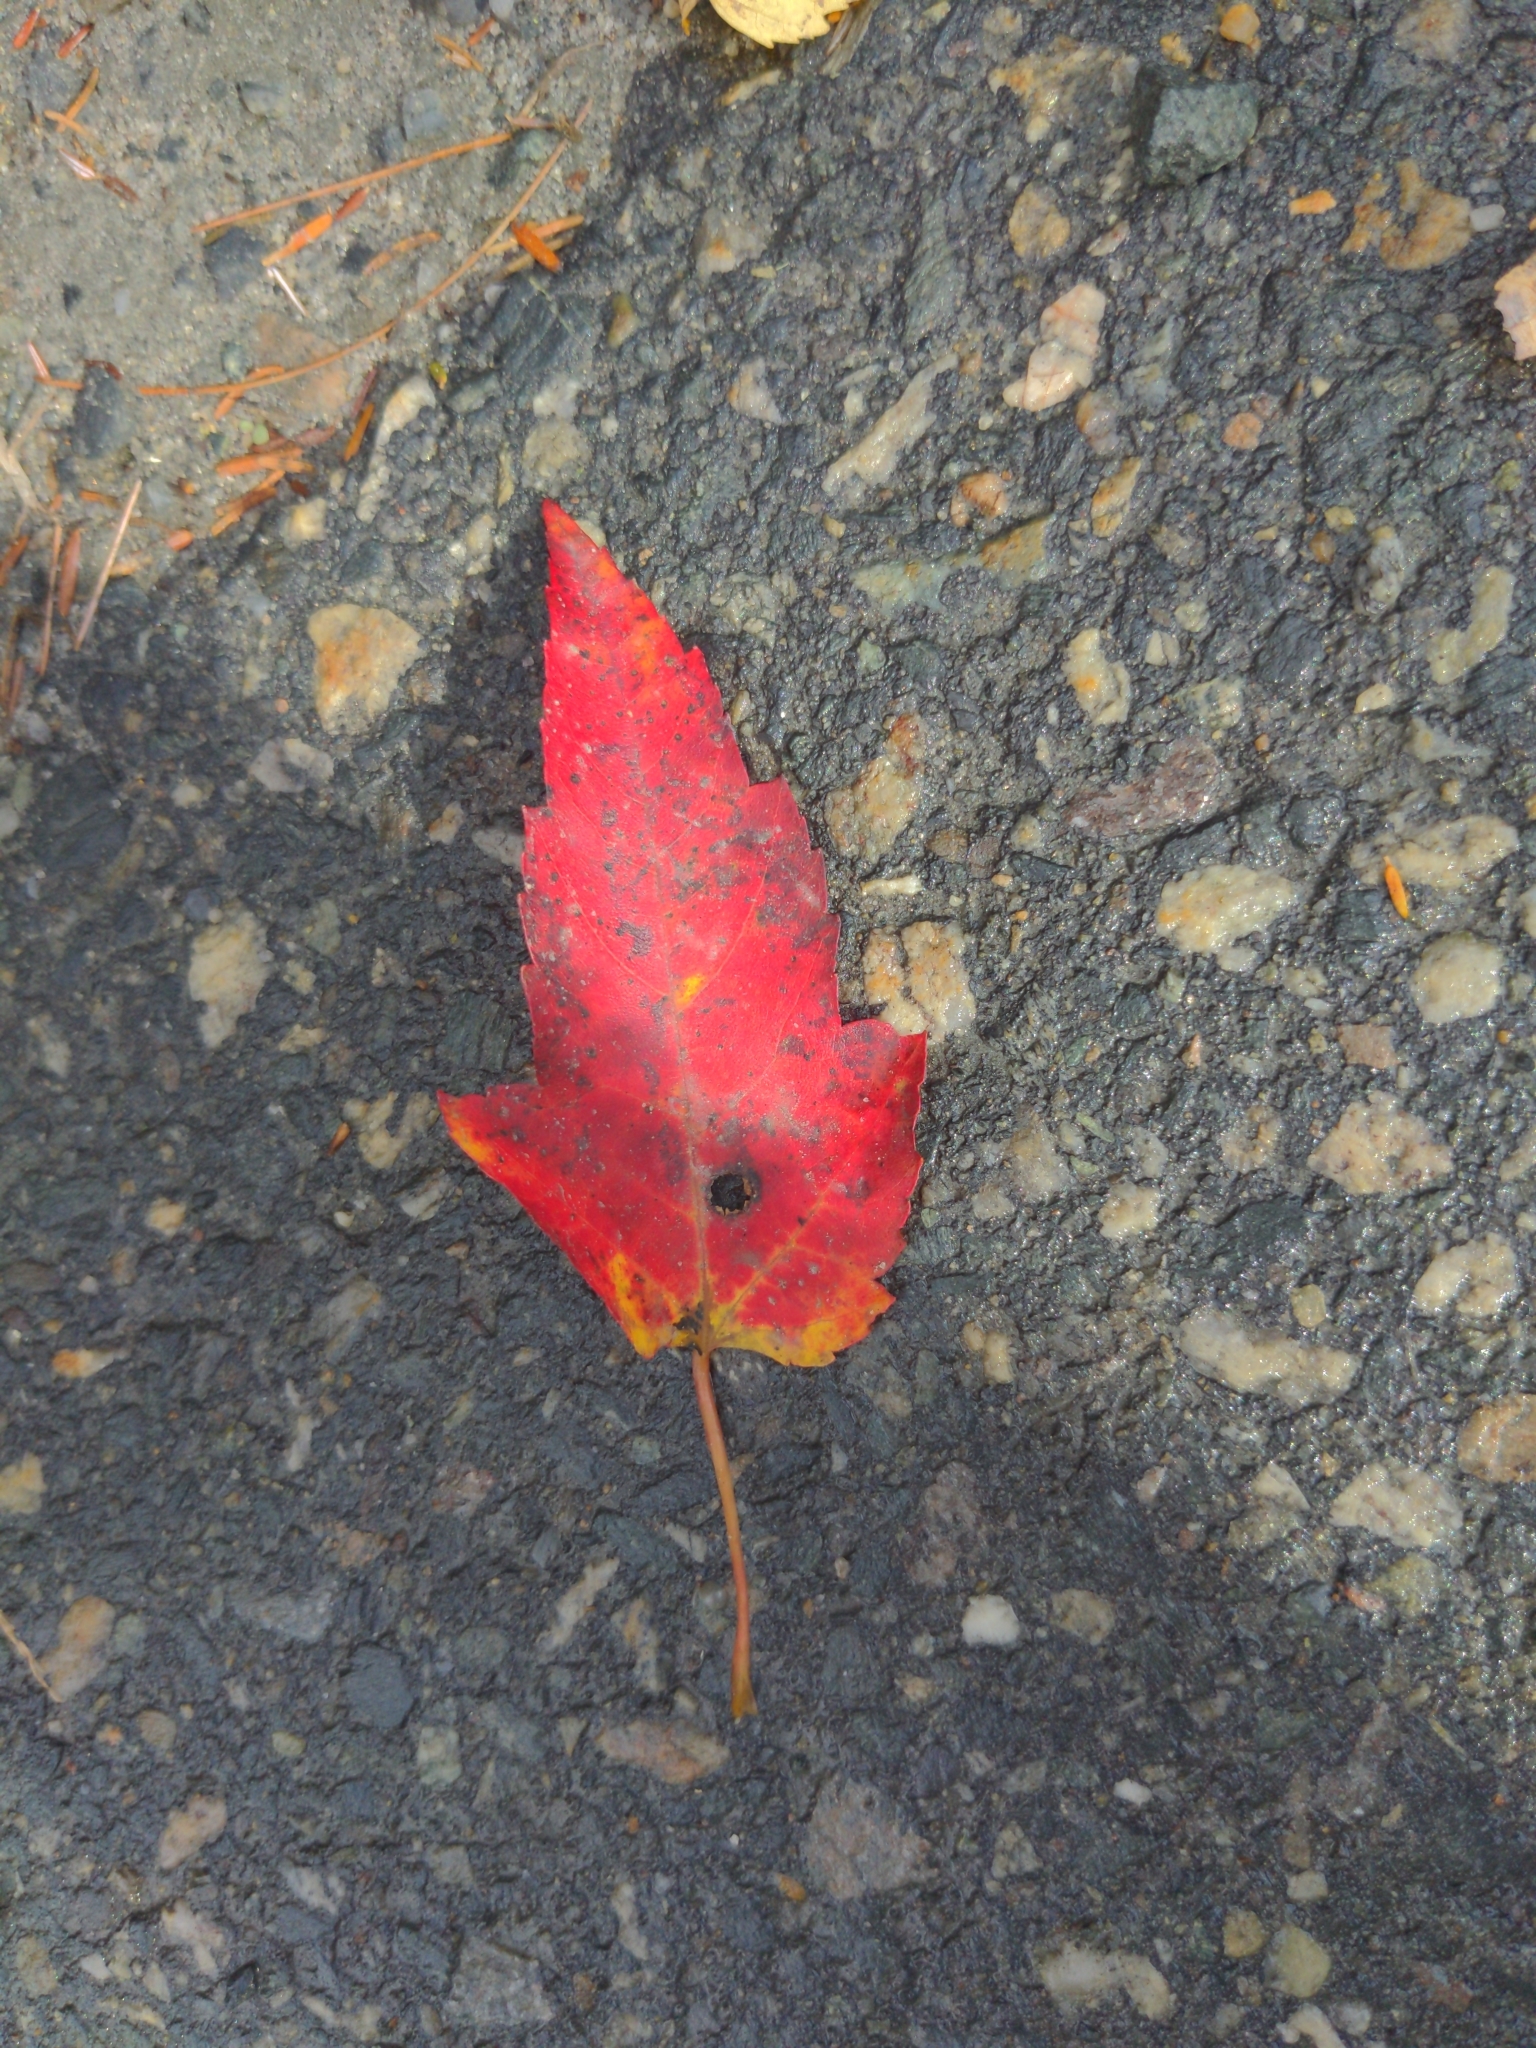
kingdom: Plantae
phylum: Tracheophyta
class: Magnoliopsida
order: Sapindales
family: Sapindaceae
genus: Acer
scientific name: Acer rubrum
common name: Red maple
